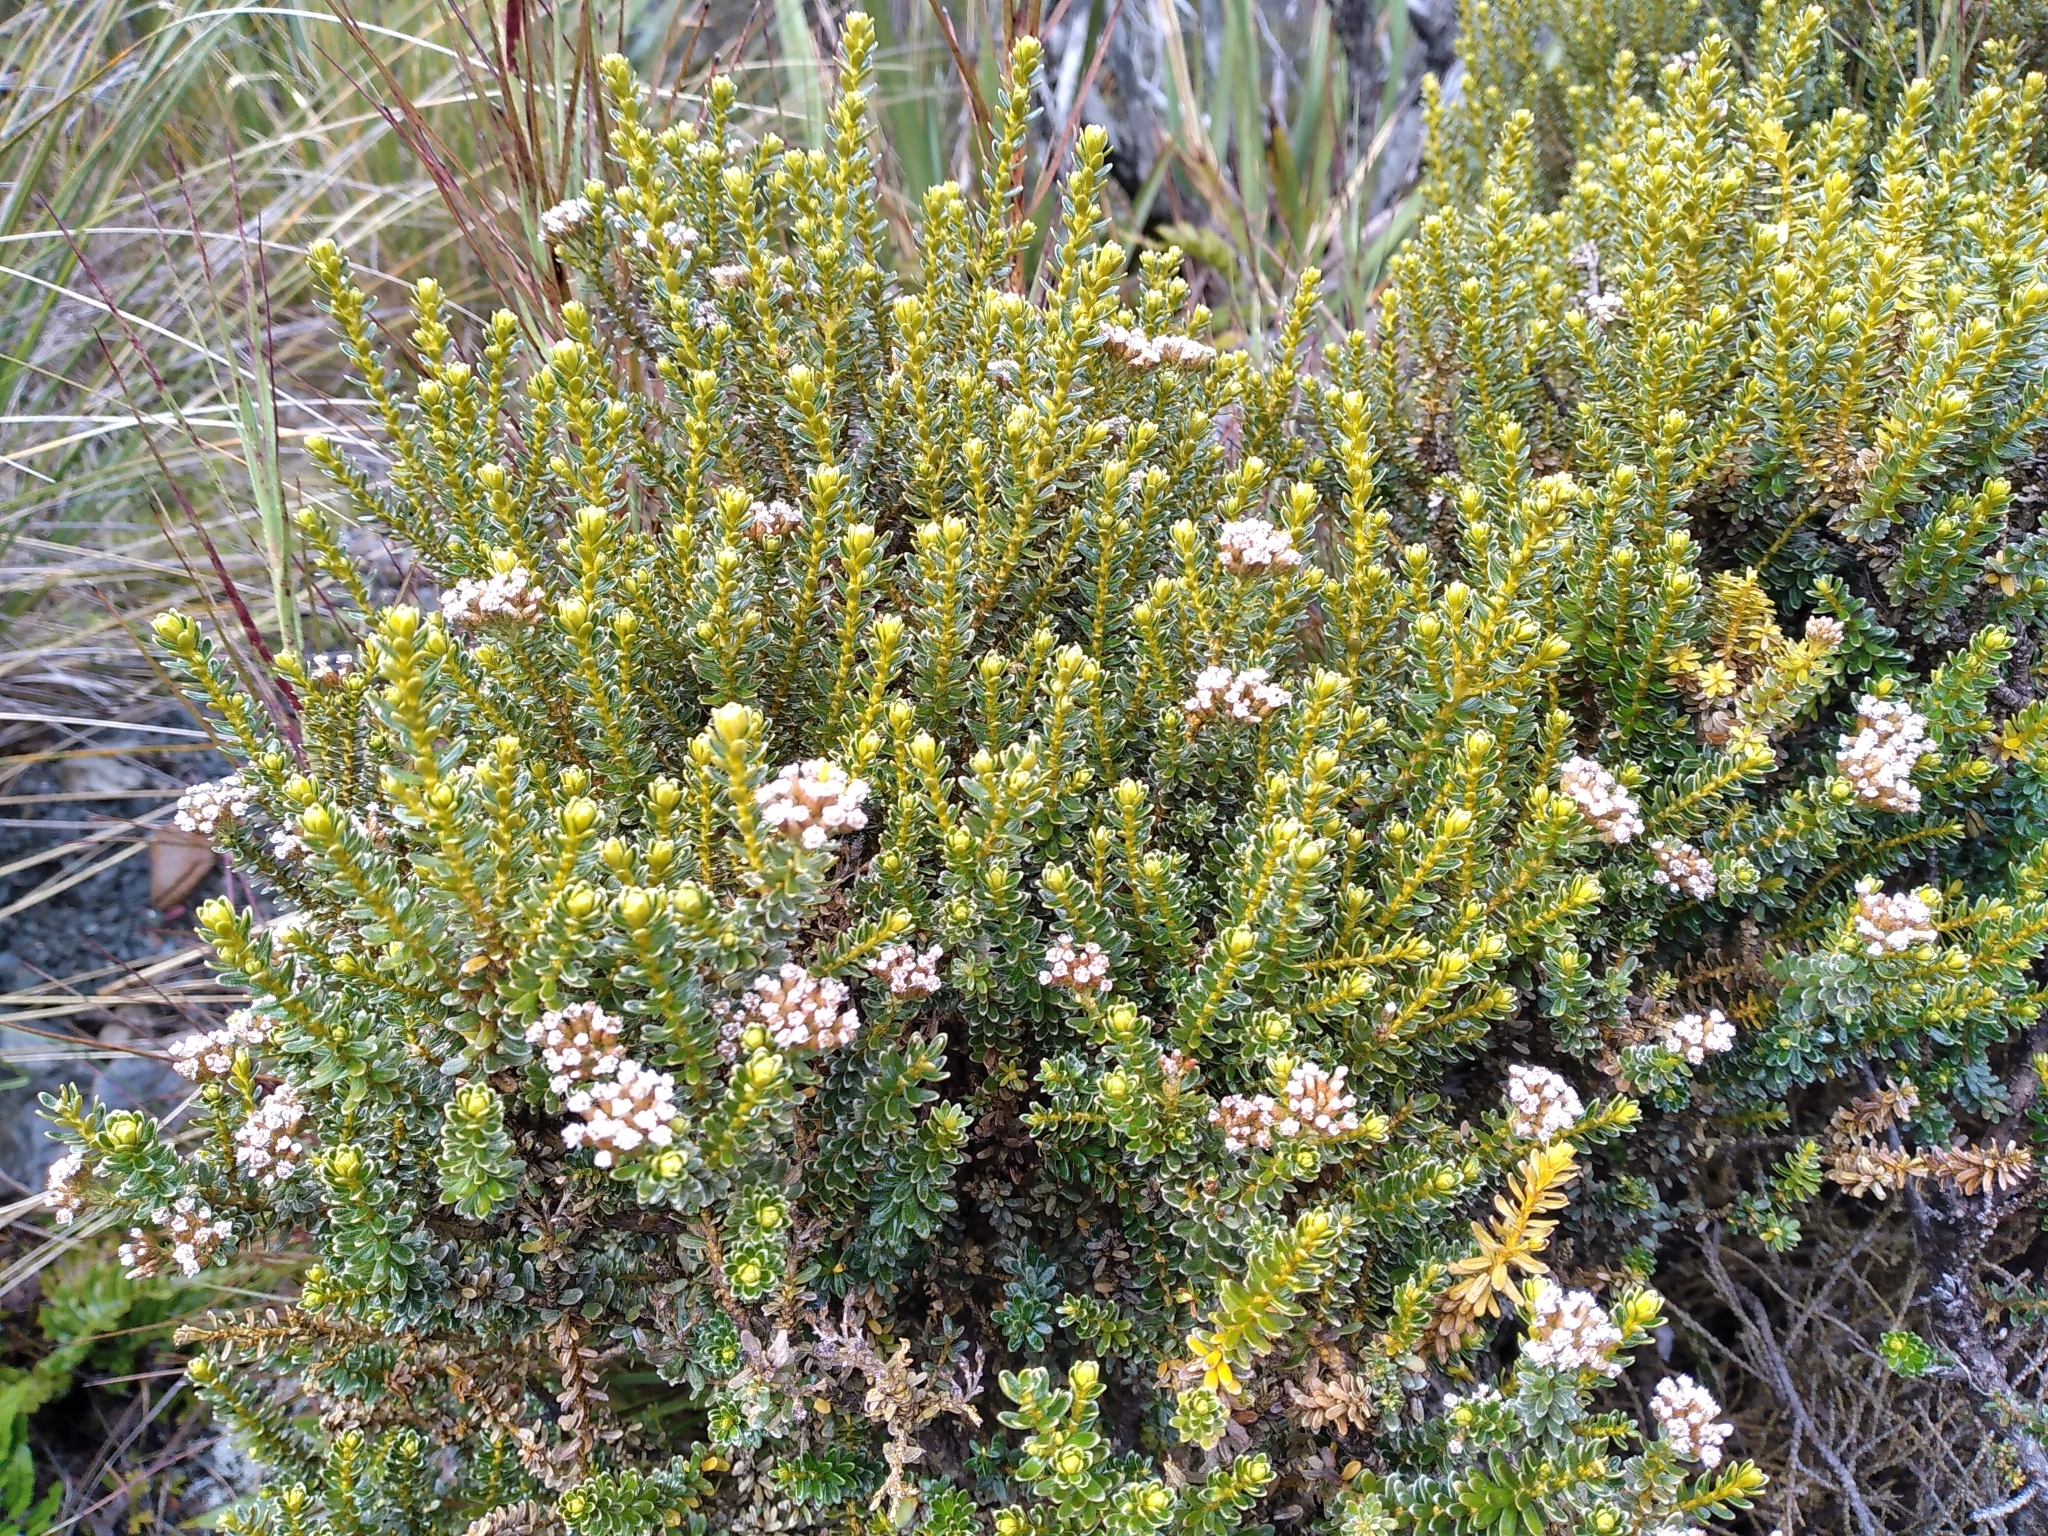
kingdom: Plantae
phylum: Tracheophyta
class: Magnoliopsida
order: Asterales
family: Asteraceae
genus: Ozothamnus
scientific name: Ozothamnus leptophyllus
